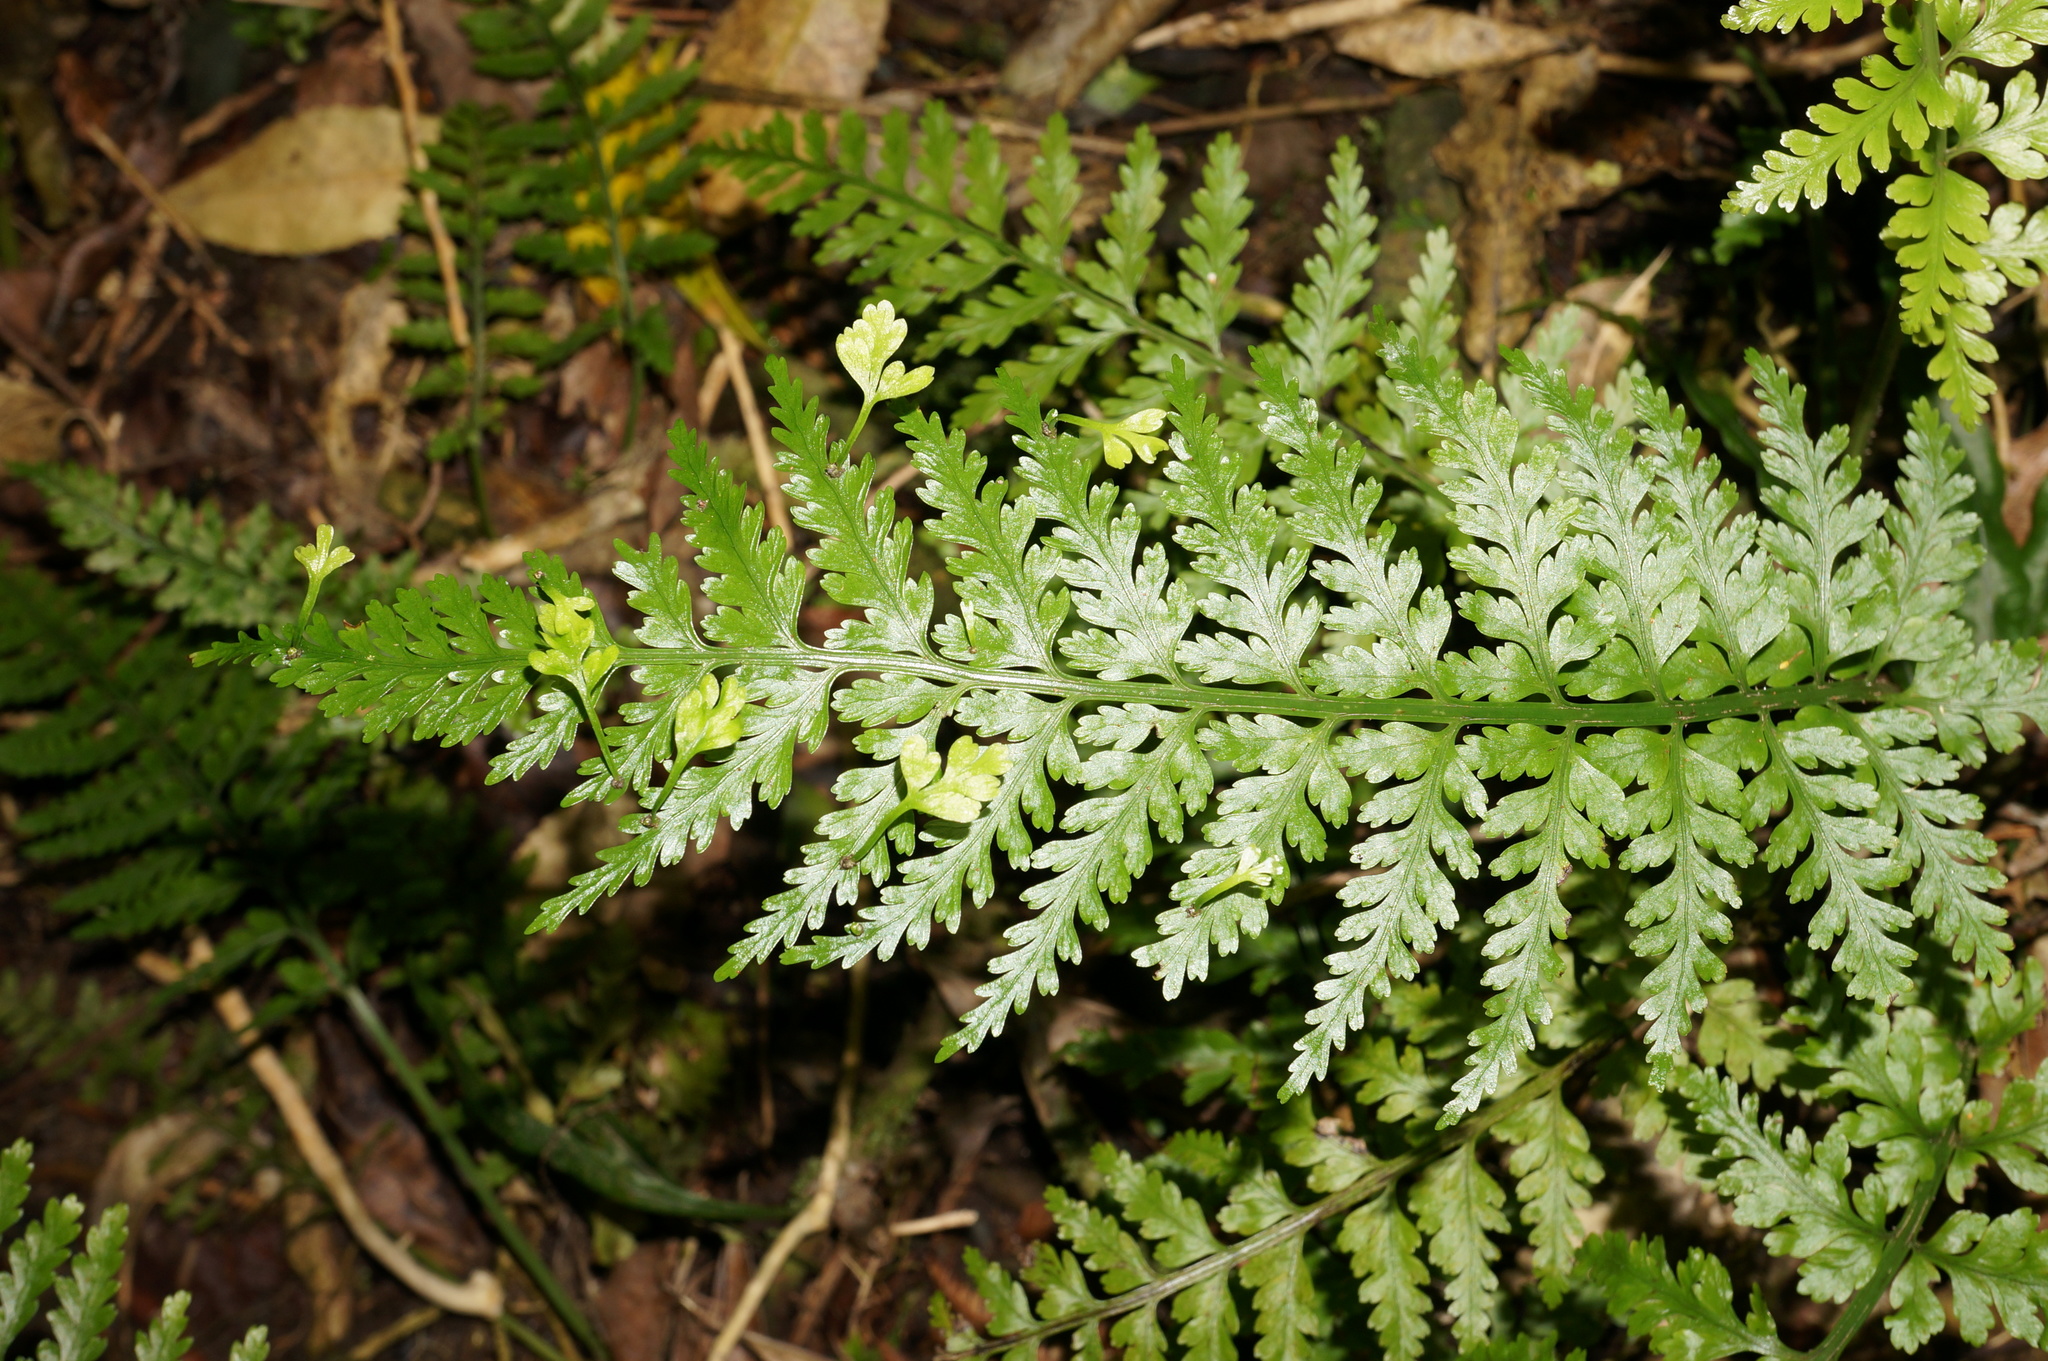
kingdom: Plantae
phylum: Tracheophyta
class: Polypodiopsida
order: Polypodiales
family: Aspleniaceae
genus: Asplenium
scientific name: Asplenium bulbiferum
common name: Mother fern
